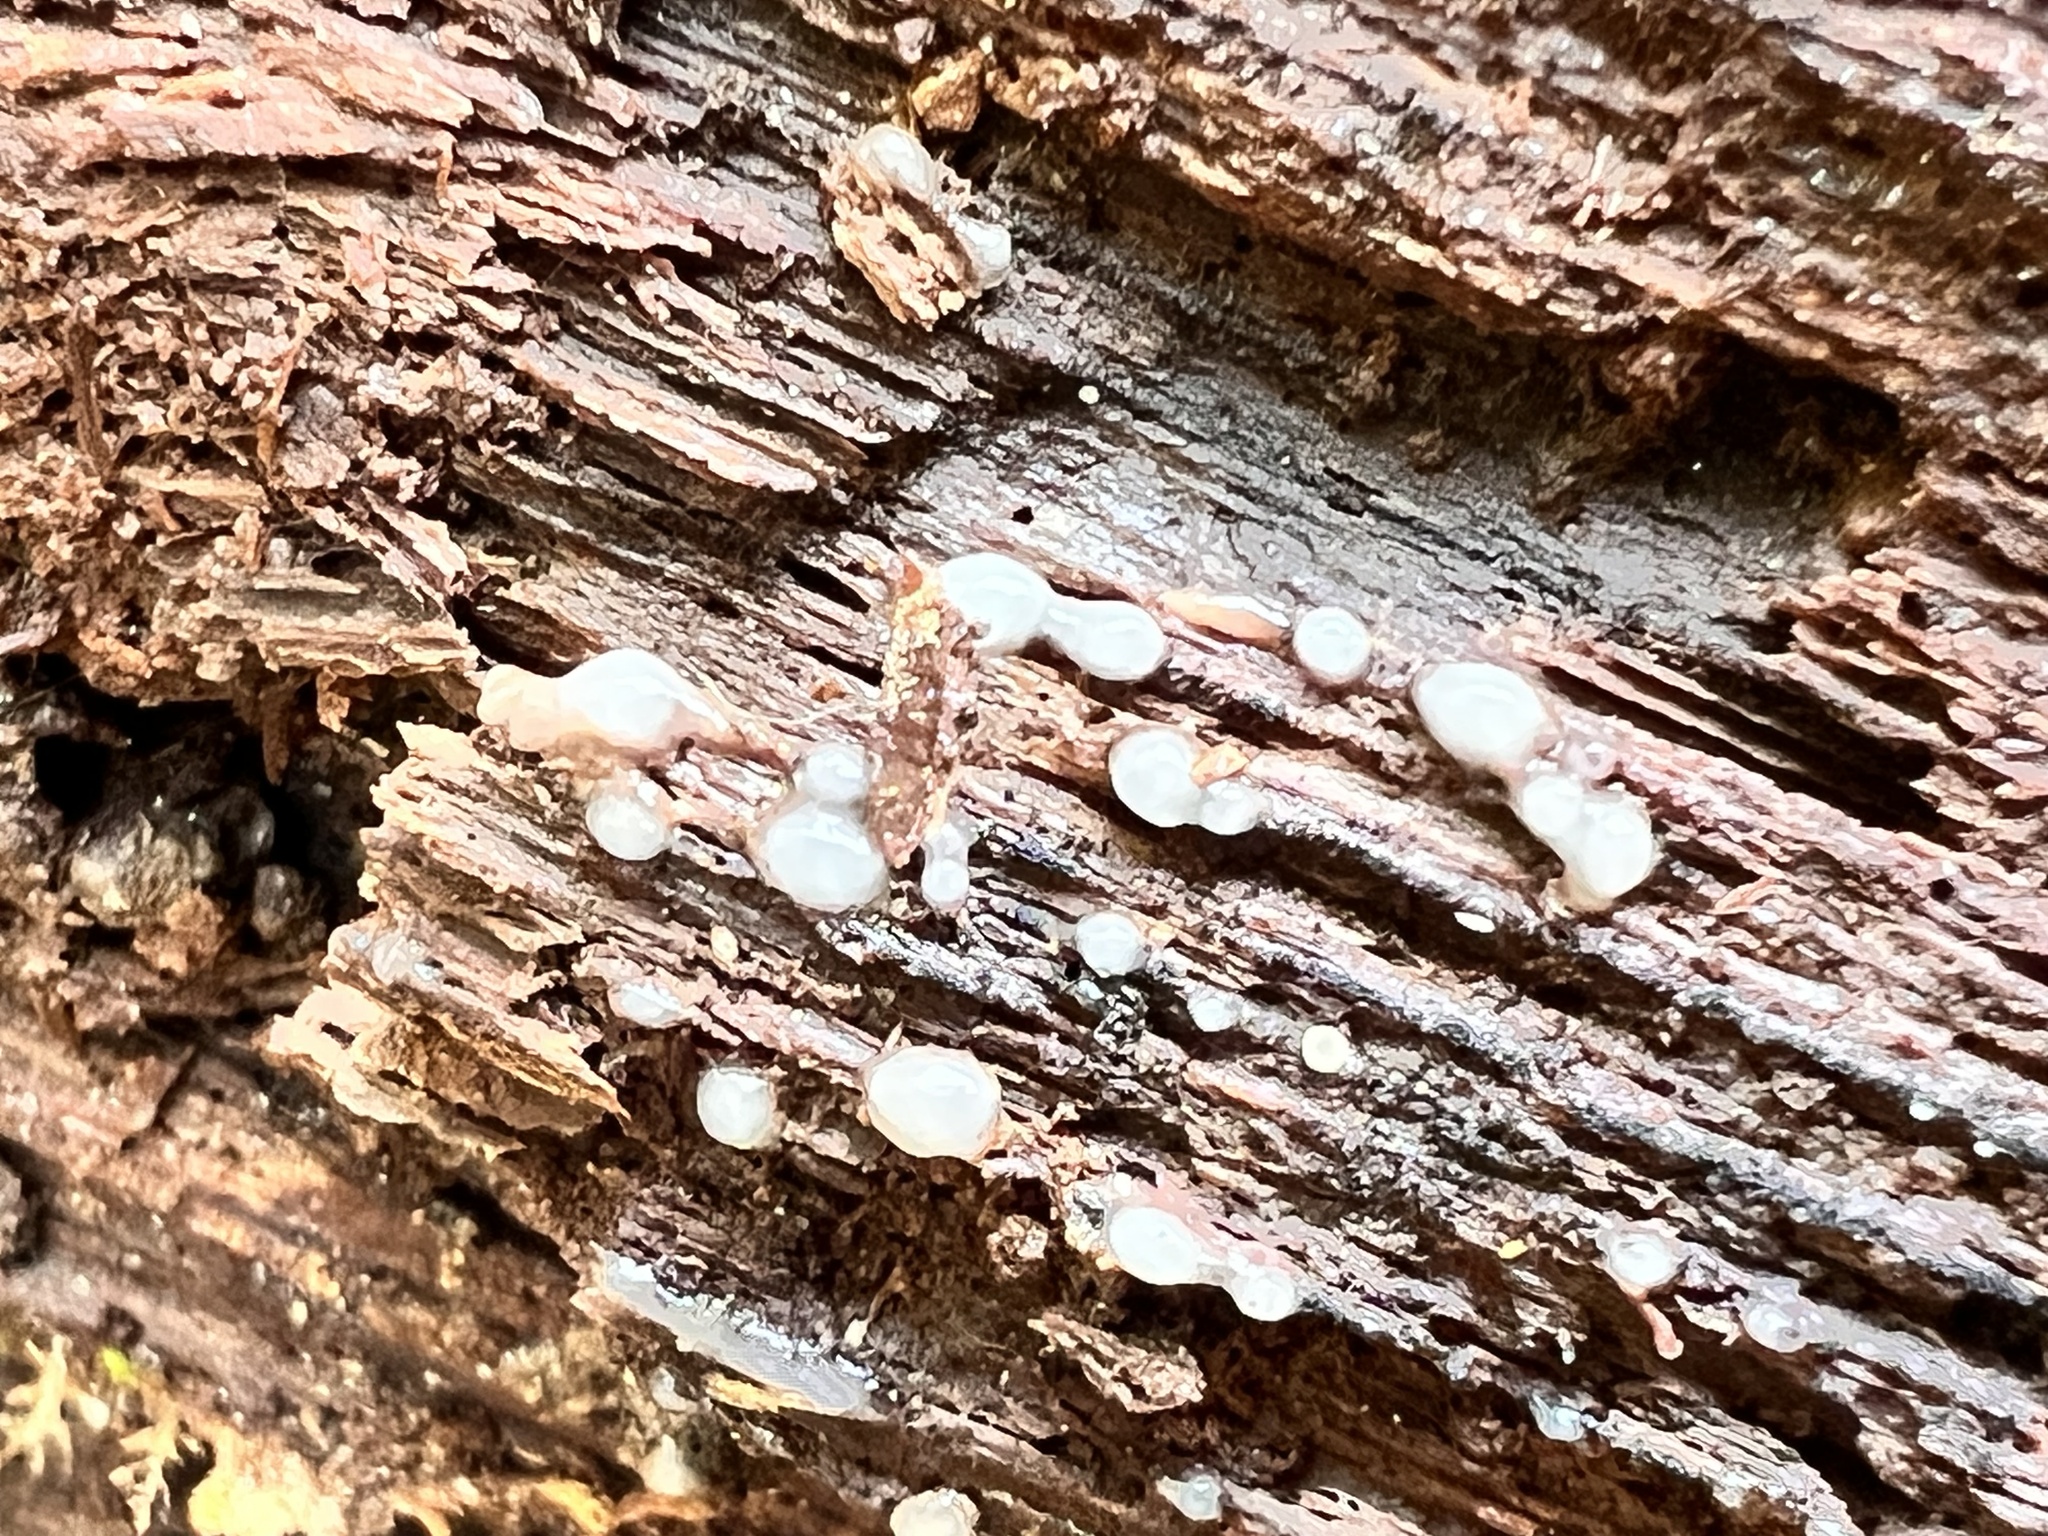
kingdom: Fungi
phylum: Basidiomycota
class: Atractiellomycetes
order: Atractiellales
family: Phleogenaceae
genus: Helicogloea
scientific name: Helicogloea compressa
